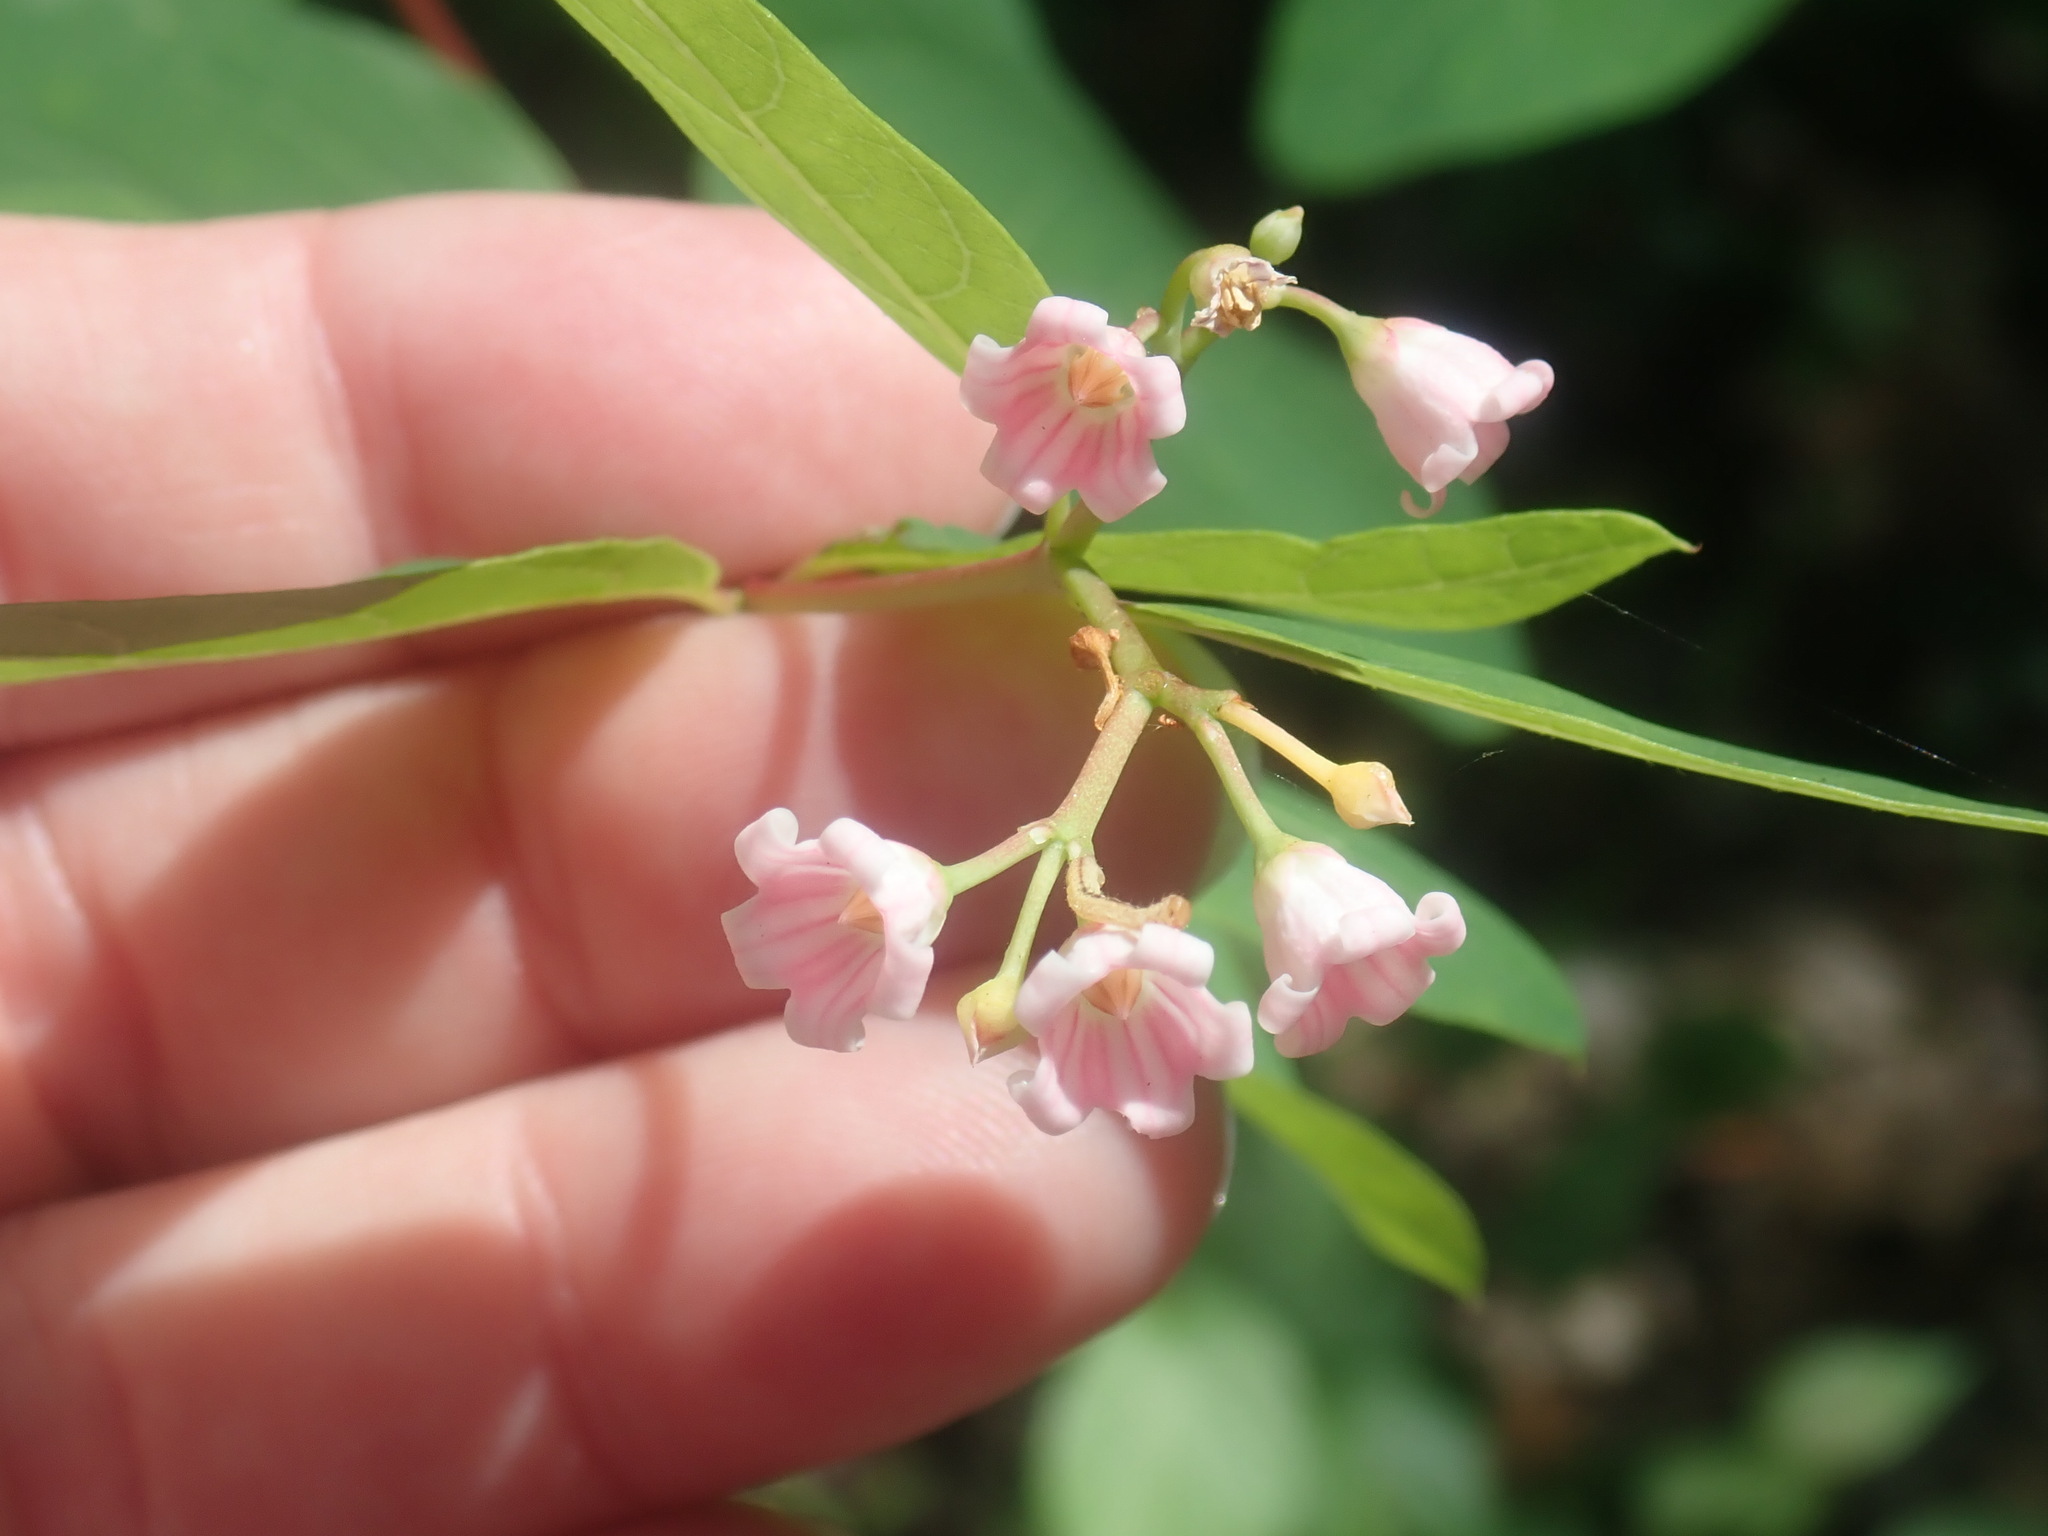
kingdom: Plantae
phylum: Tracheophyta
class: Magnoliopsida
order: Gentianales
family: Apocynaceae
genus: Apocynum
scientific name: Apocynum androsaemifolium
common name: Spreading dogbane
